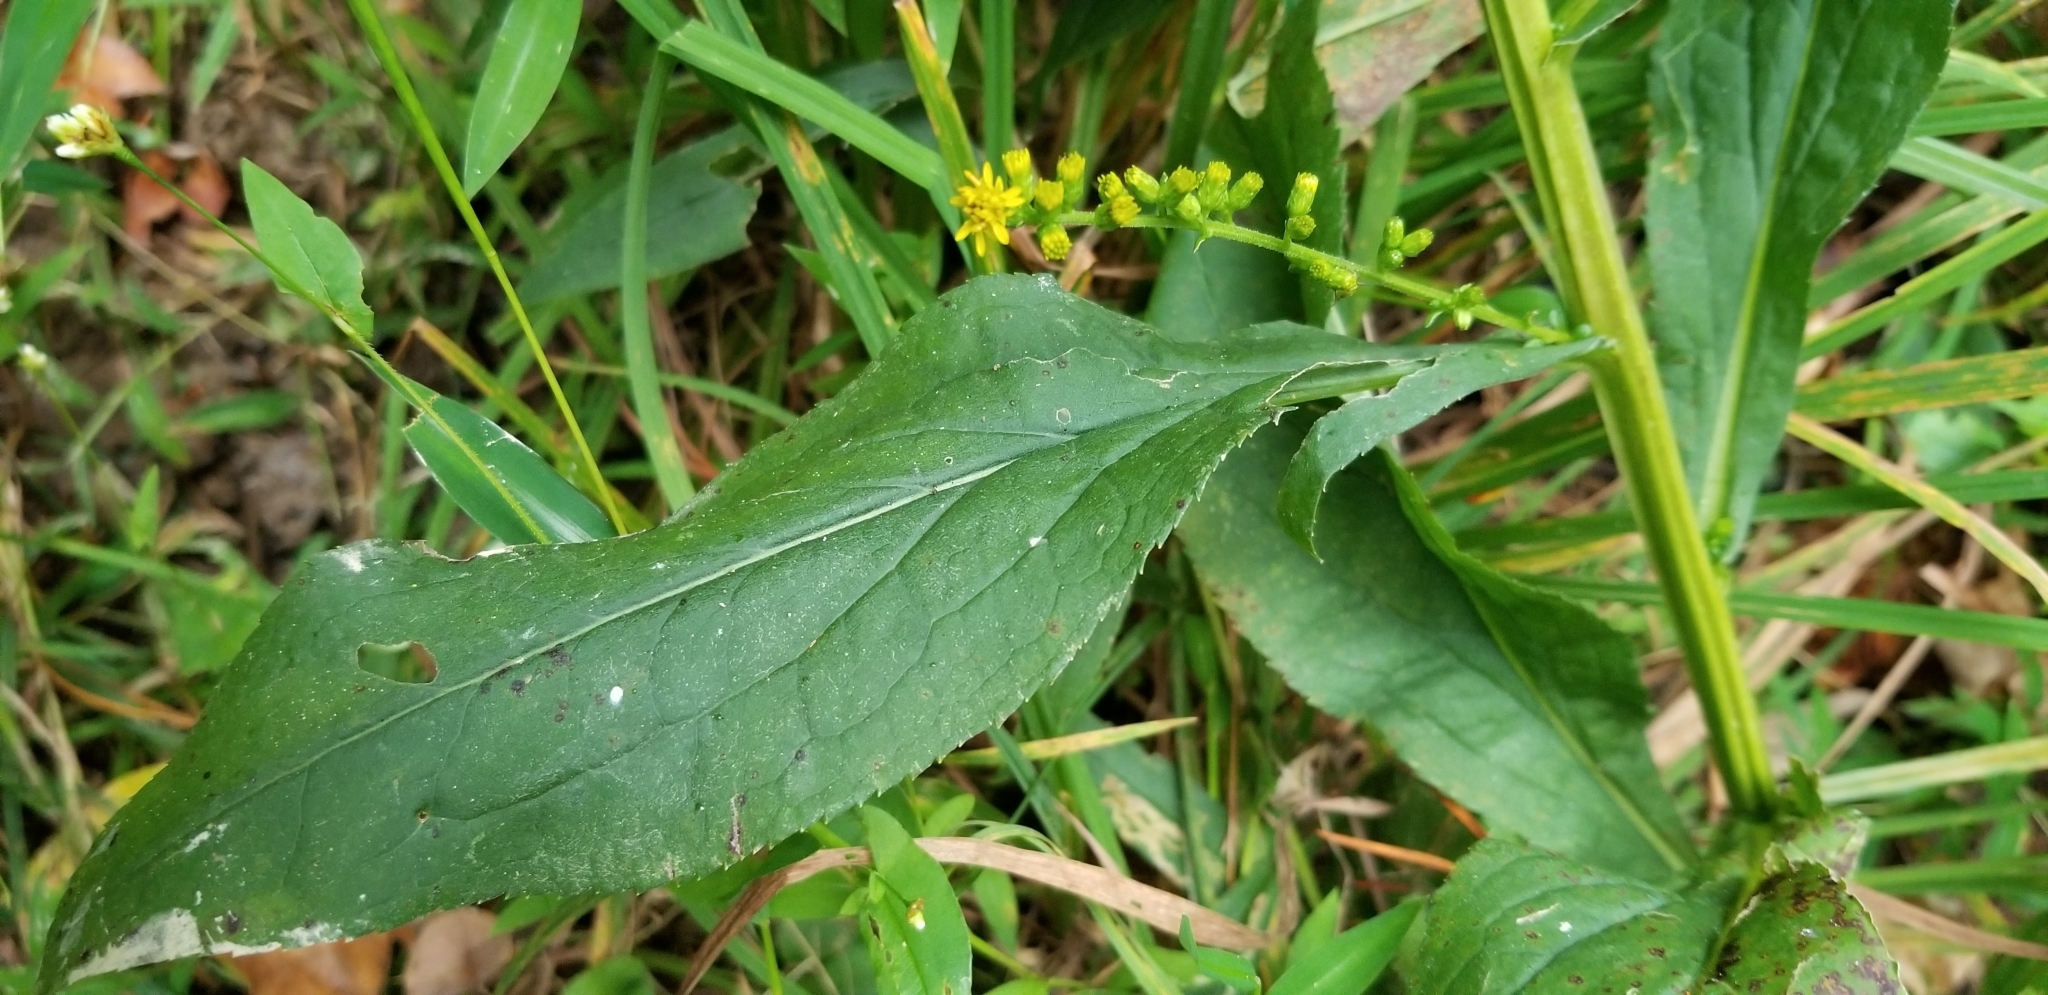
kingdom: Plantae
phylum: Tracheophyta
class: Magnoliopsida
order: Asterales
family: Asteraceae
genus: Solidago
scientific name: Solidago patula
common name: Rough-leaf goldenrod
